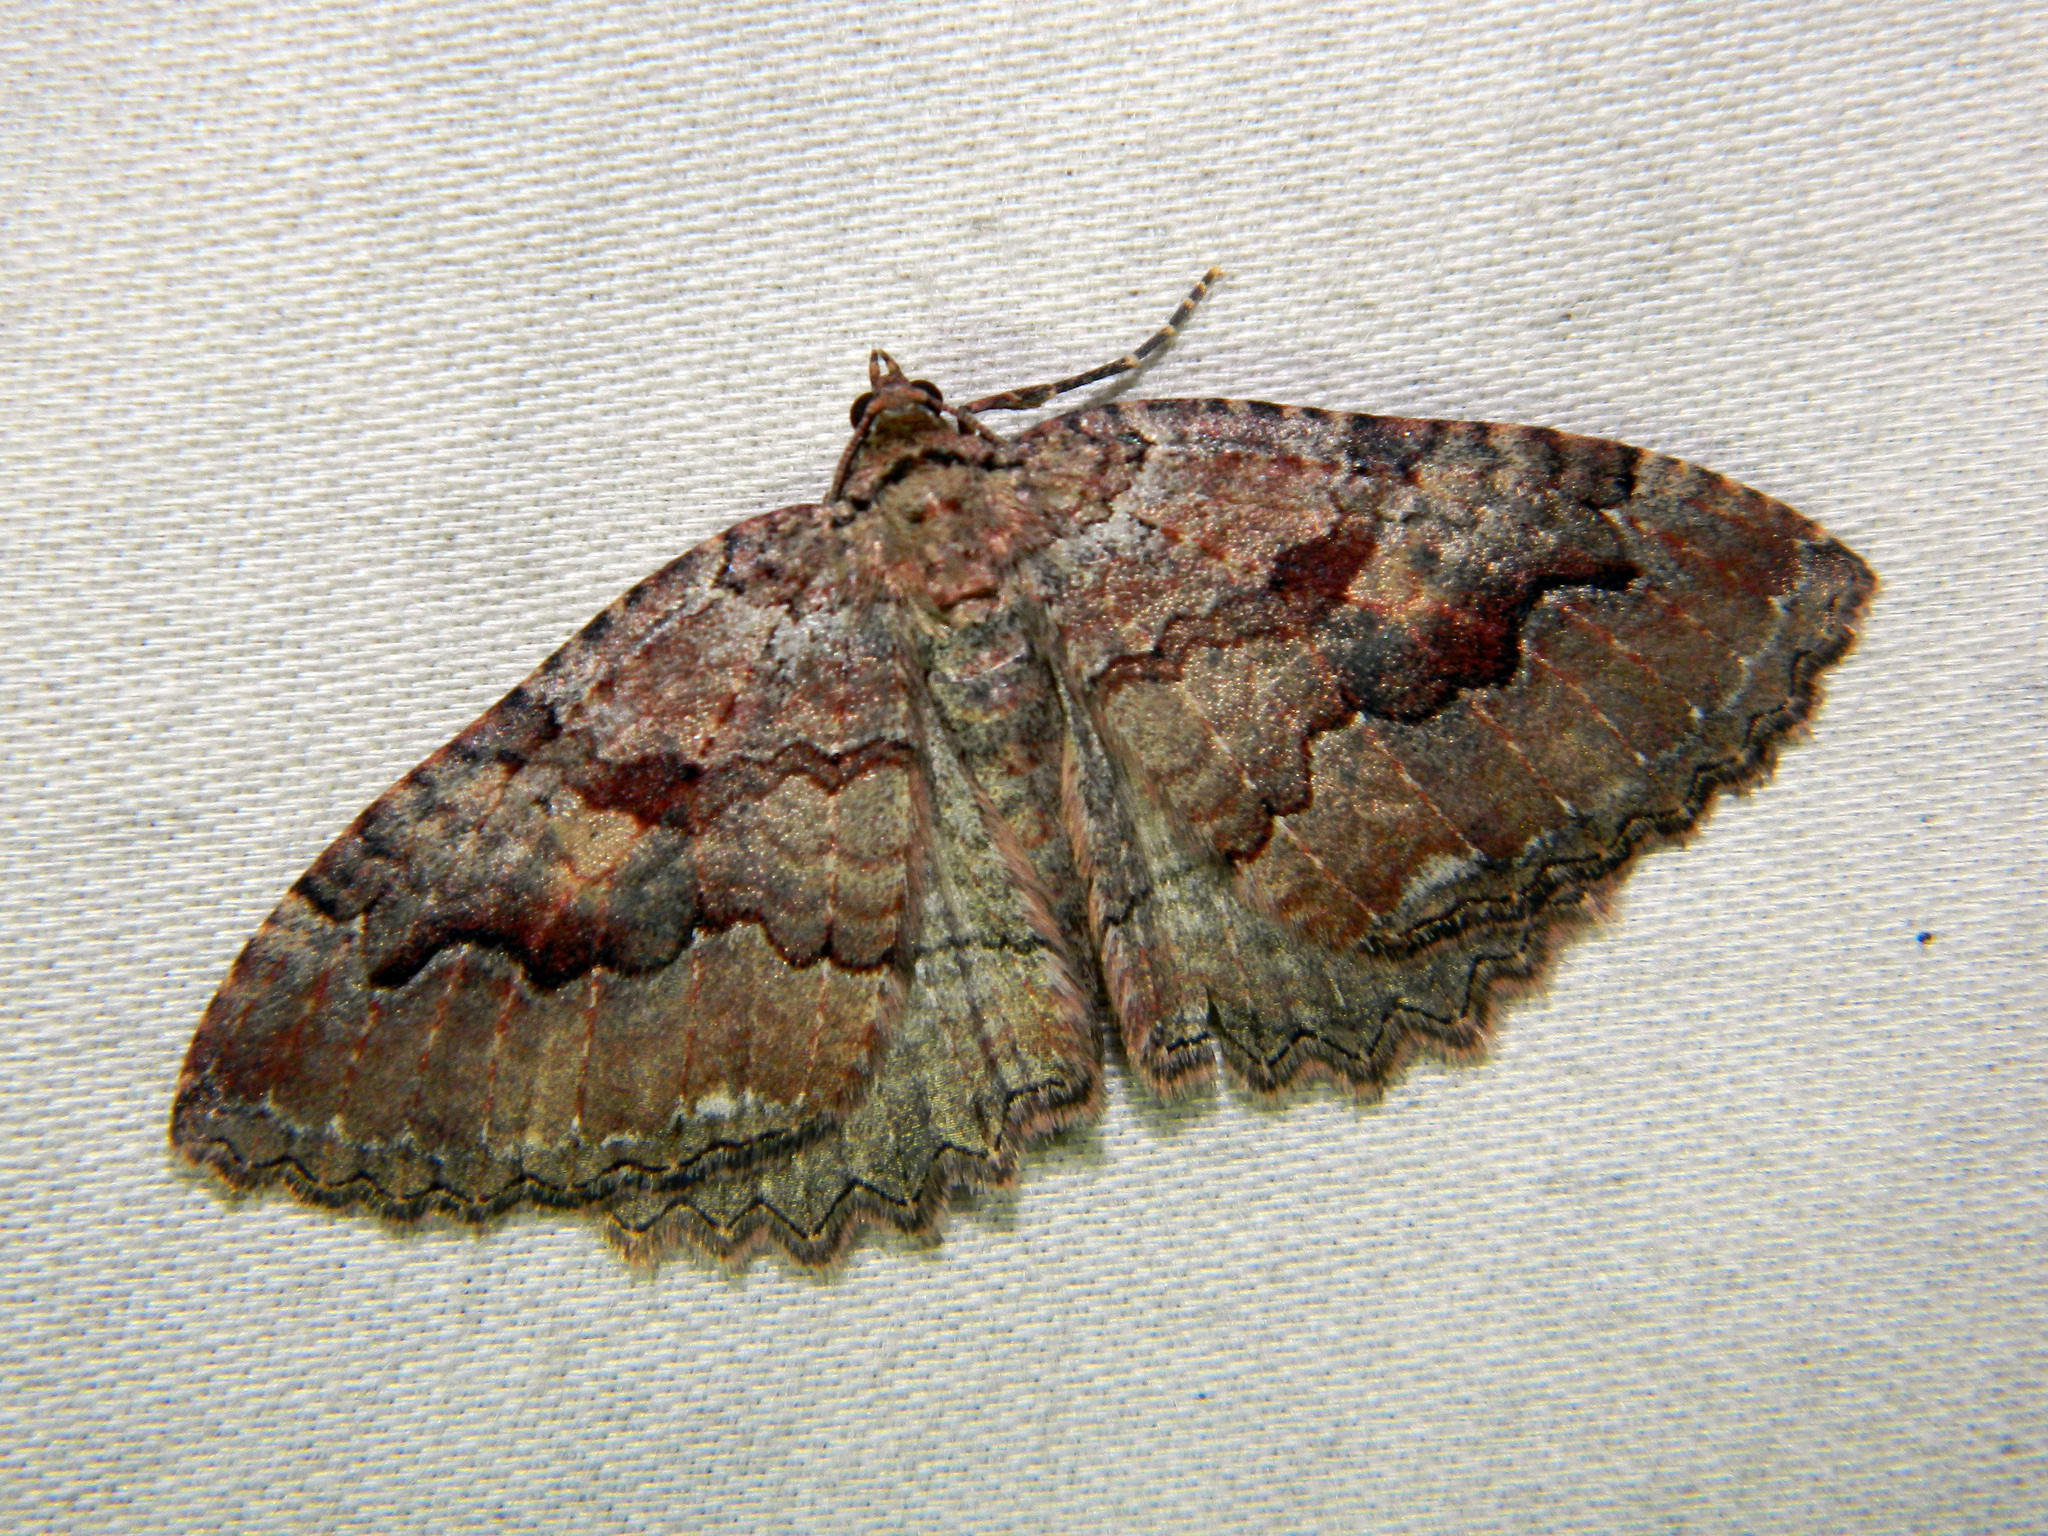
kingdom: Animalia
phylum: Arthropoda
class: Insecta
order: Lepidoptera
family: Geometridae
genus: Triphosa
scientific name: Triphosa haesitata
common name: Tissue moth
